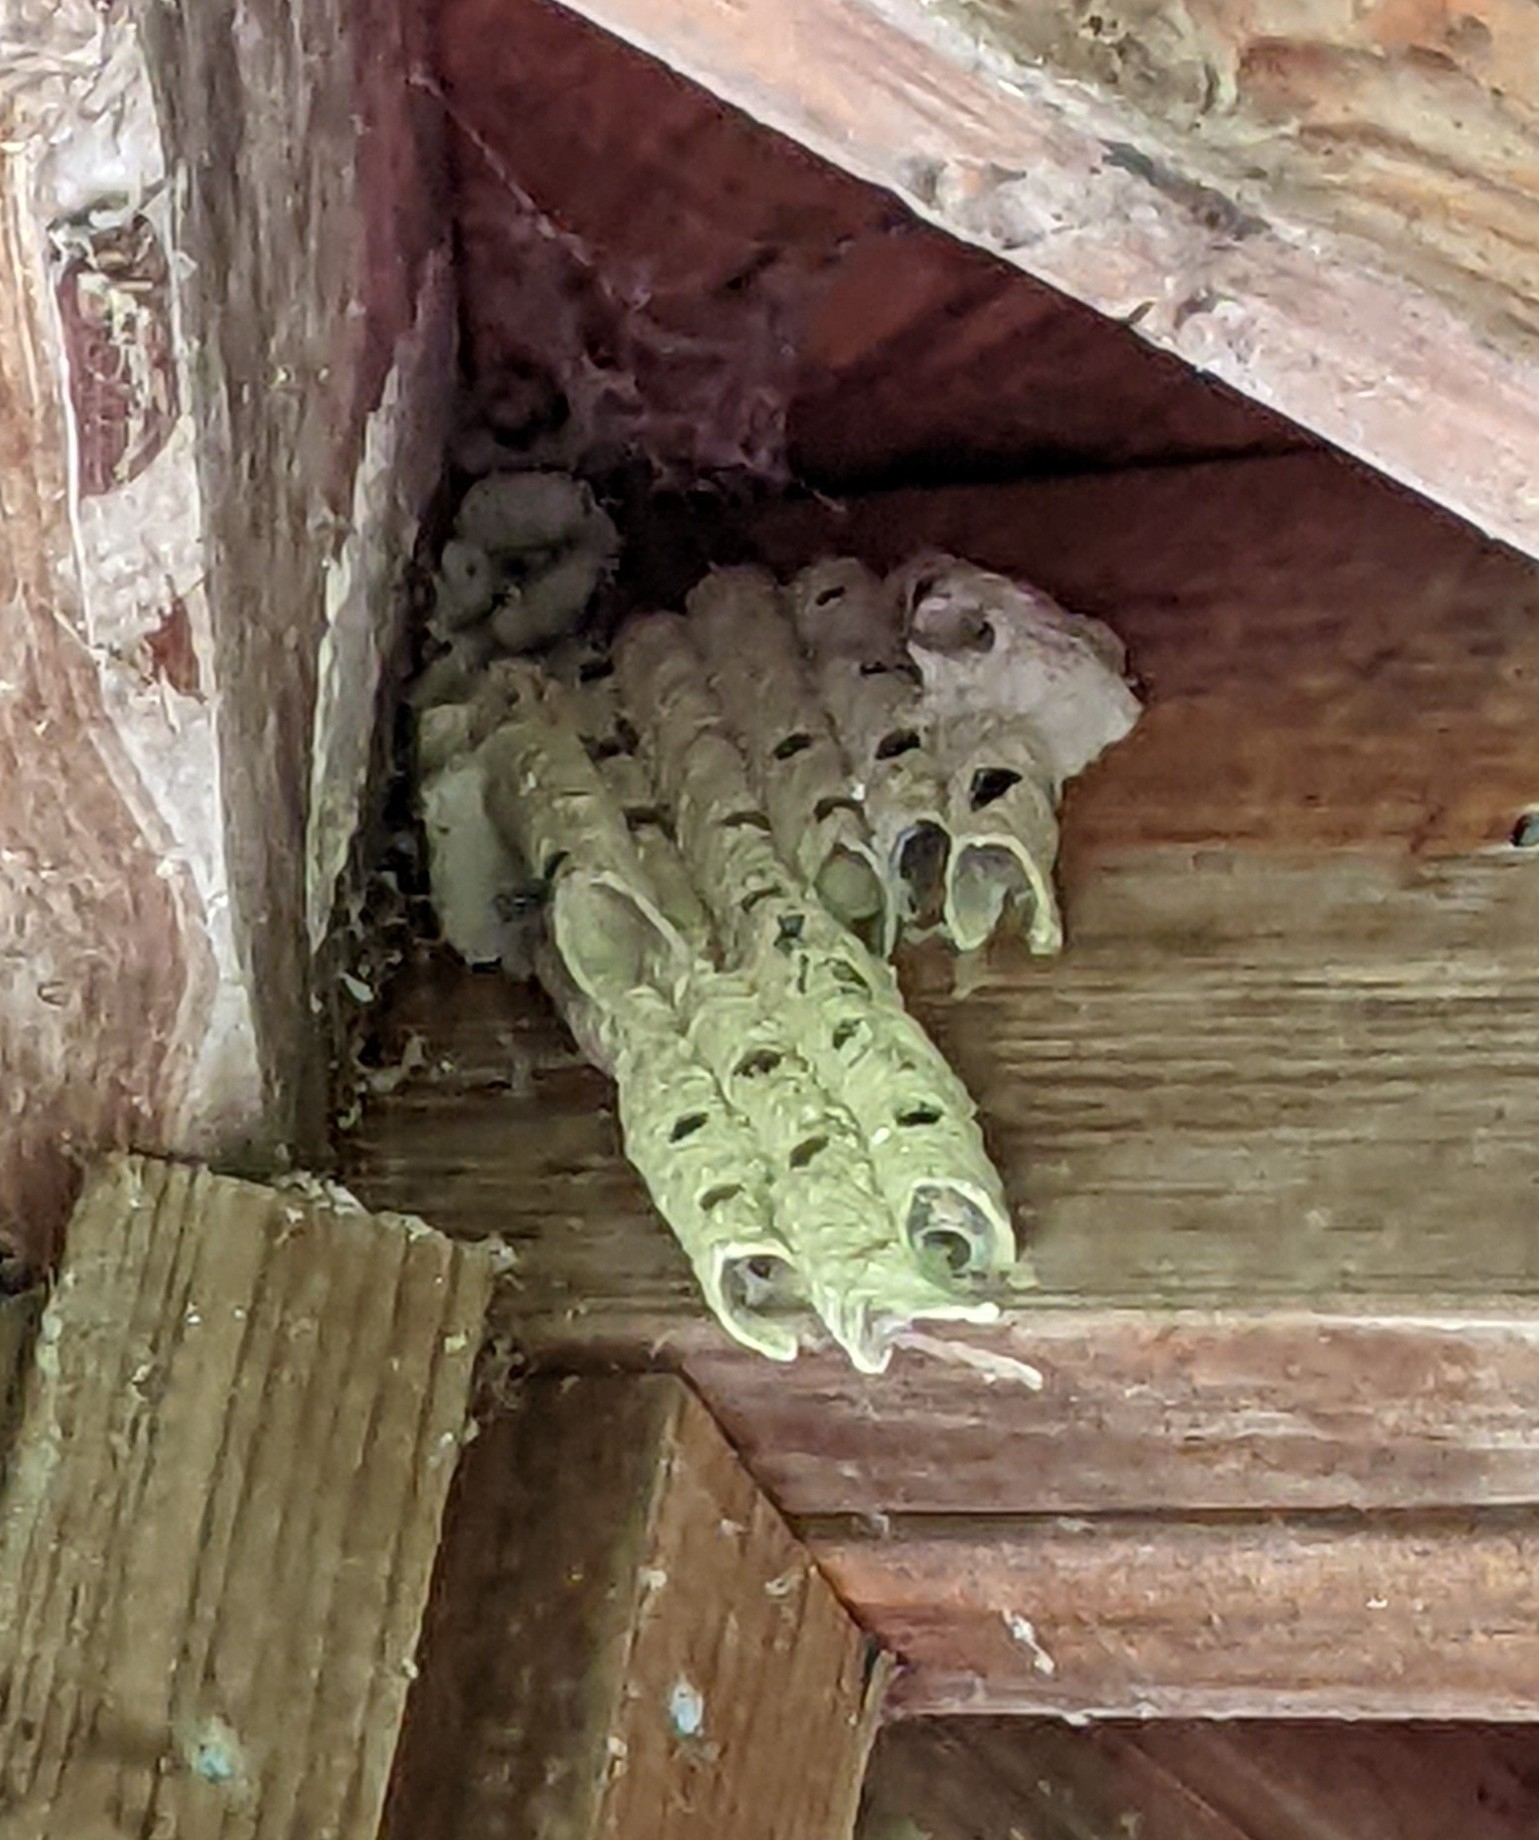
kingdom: Animalia
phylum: Arthropoda
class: Insecta
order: Hymenoptera
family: Crabronidae
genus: Trypoxylon
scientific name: Trypoxylon politum
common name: Organ-pipe mud-dauber wasp
